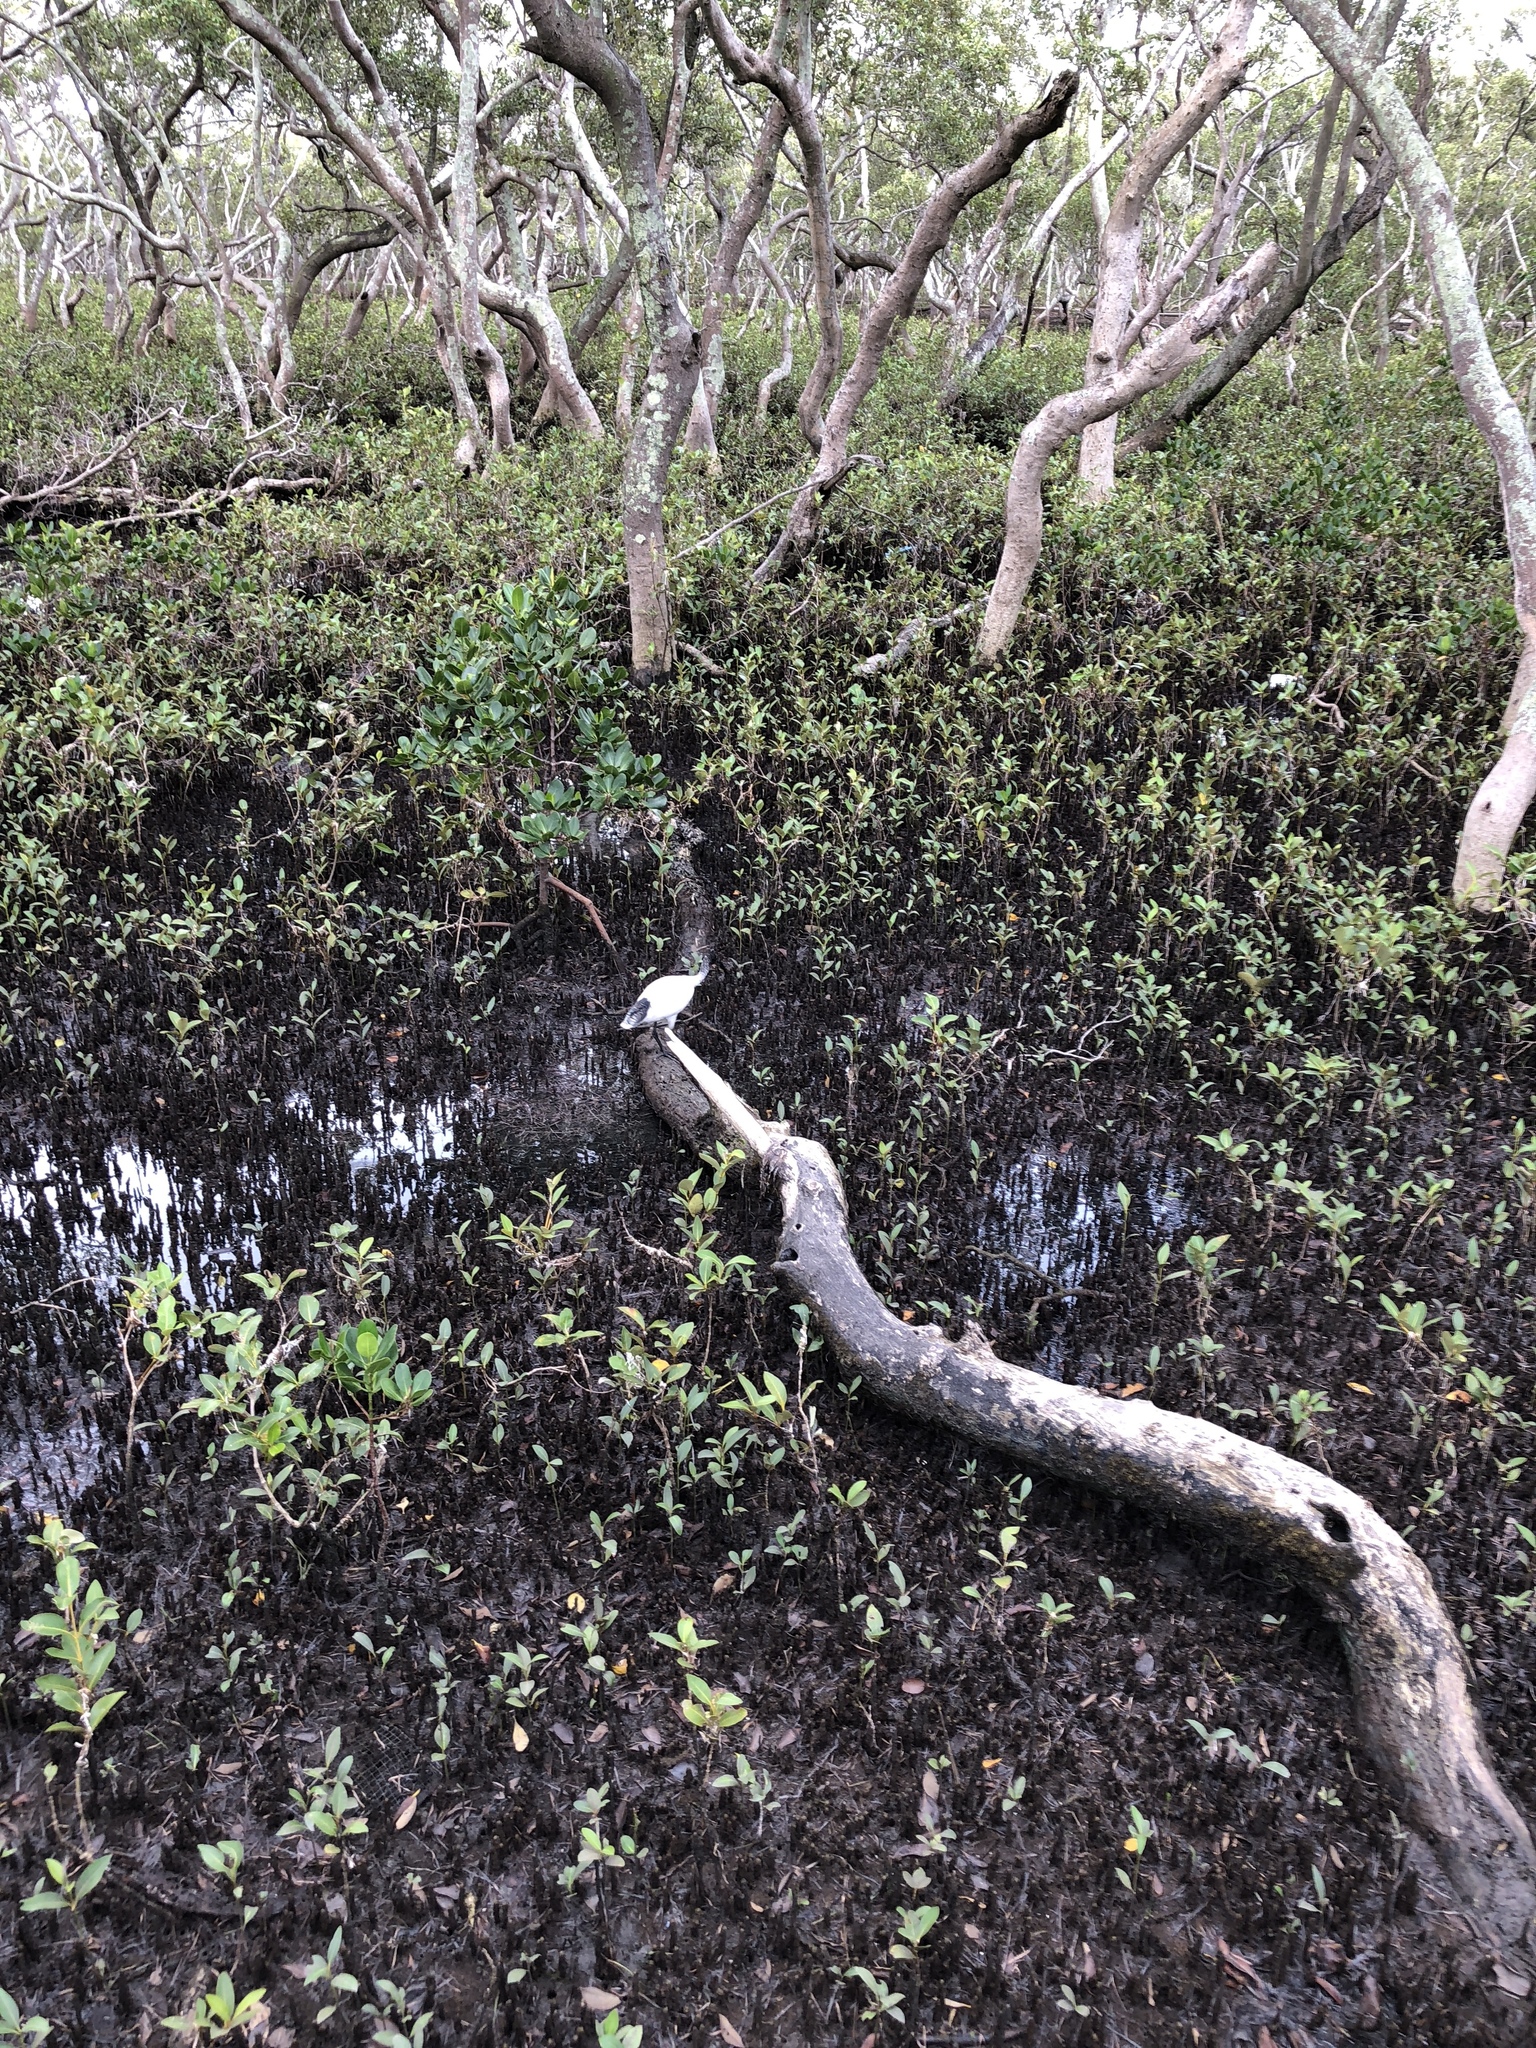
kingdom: Animalia
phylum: Chordata
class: Aves
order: Pelecaniformes
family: Threskiornithidae
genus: Threskiornis
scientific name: Threskiornis molucca
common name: Australian white ibis
